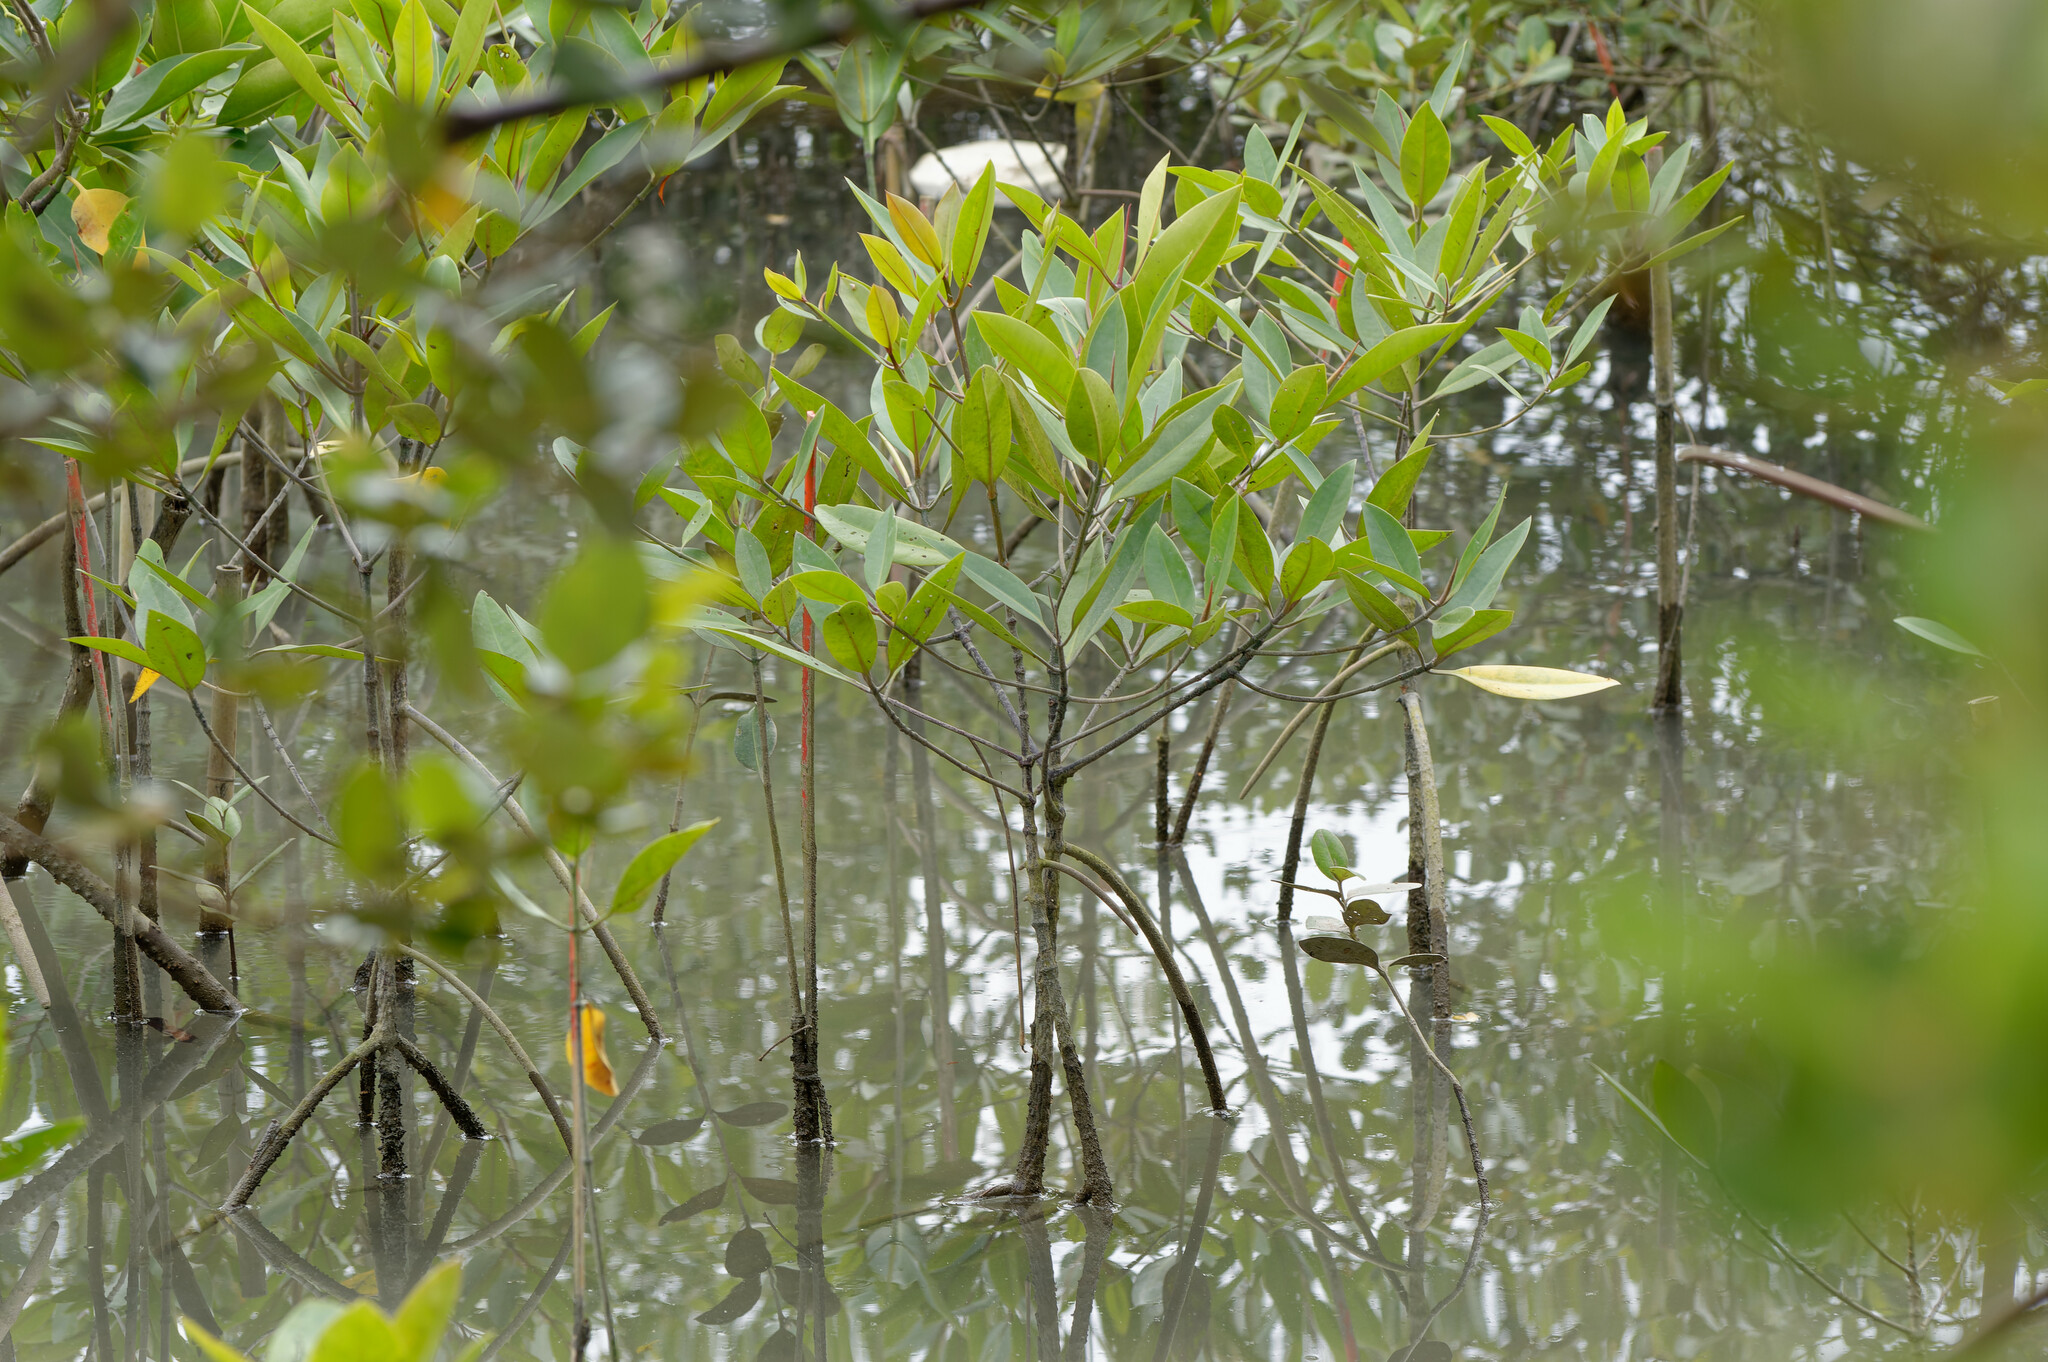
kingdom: Plantae
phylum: Tracheophyta
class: Magnoliopsida
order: Malpighiales
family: Rhizophoraceae
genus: Rhizophora
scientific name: Rhizophora apiculata
